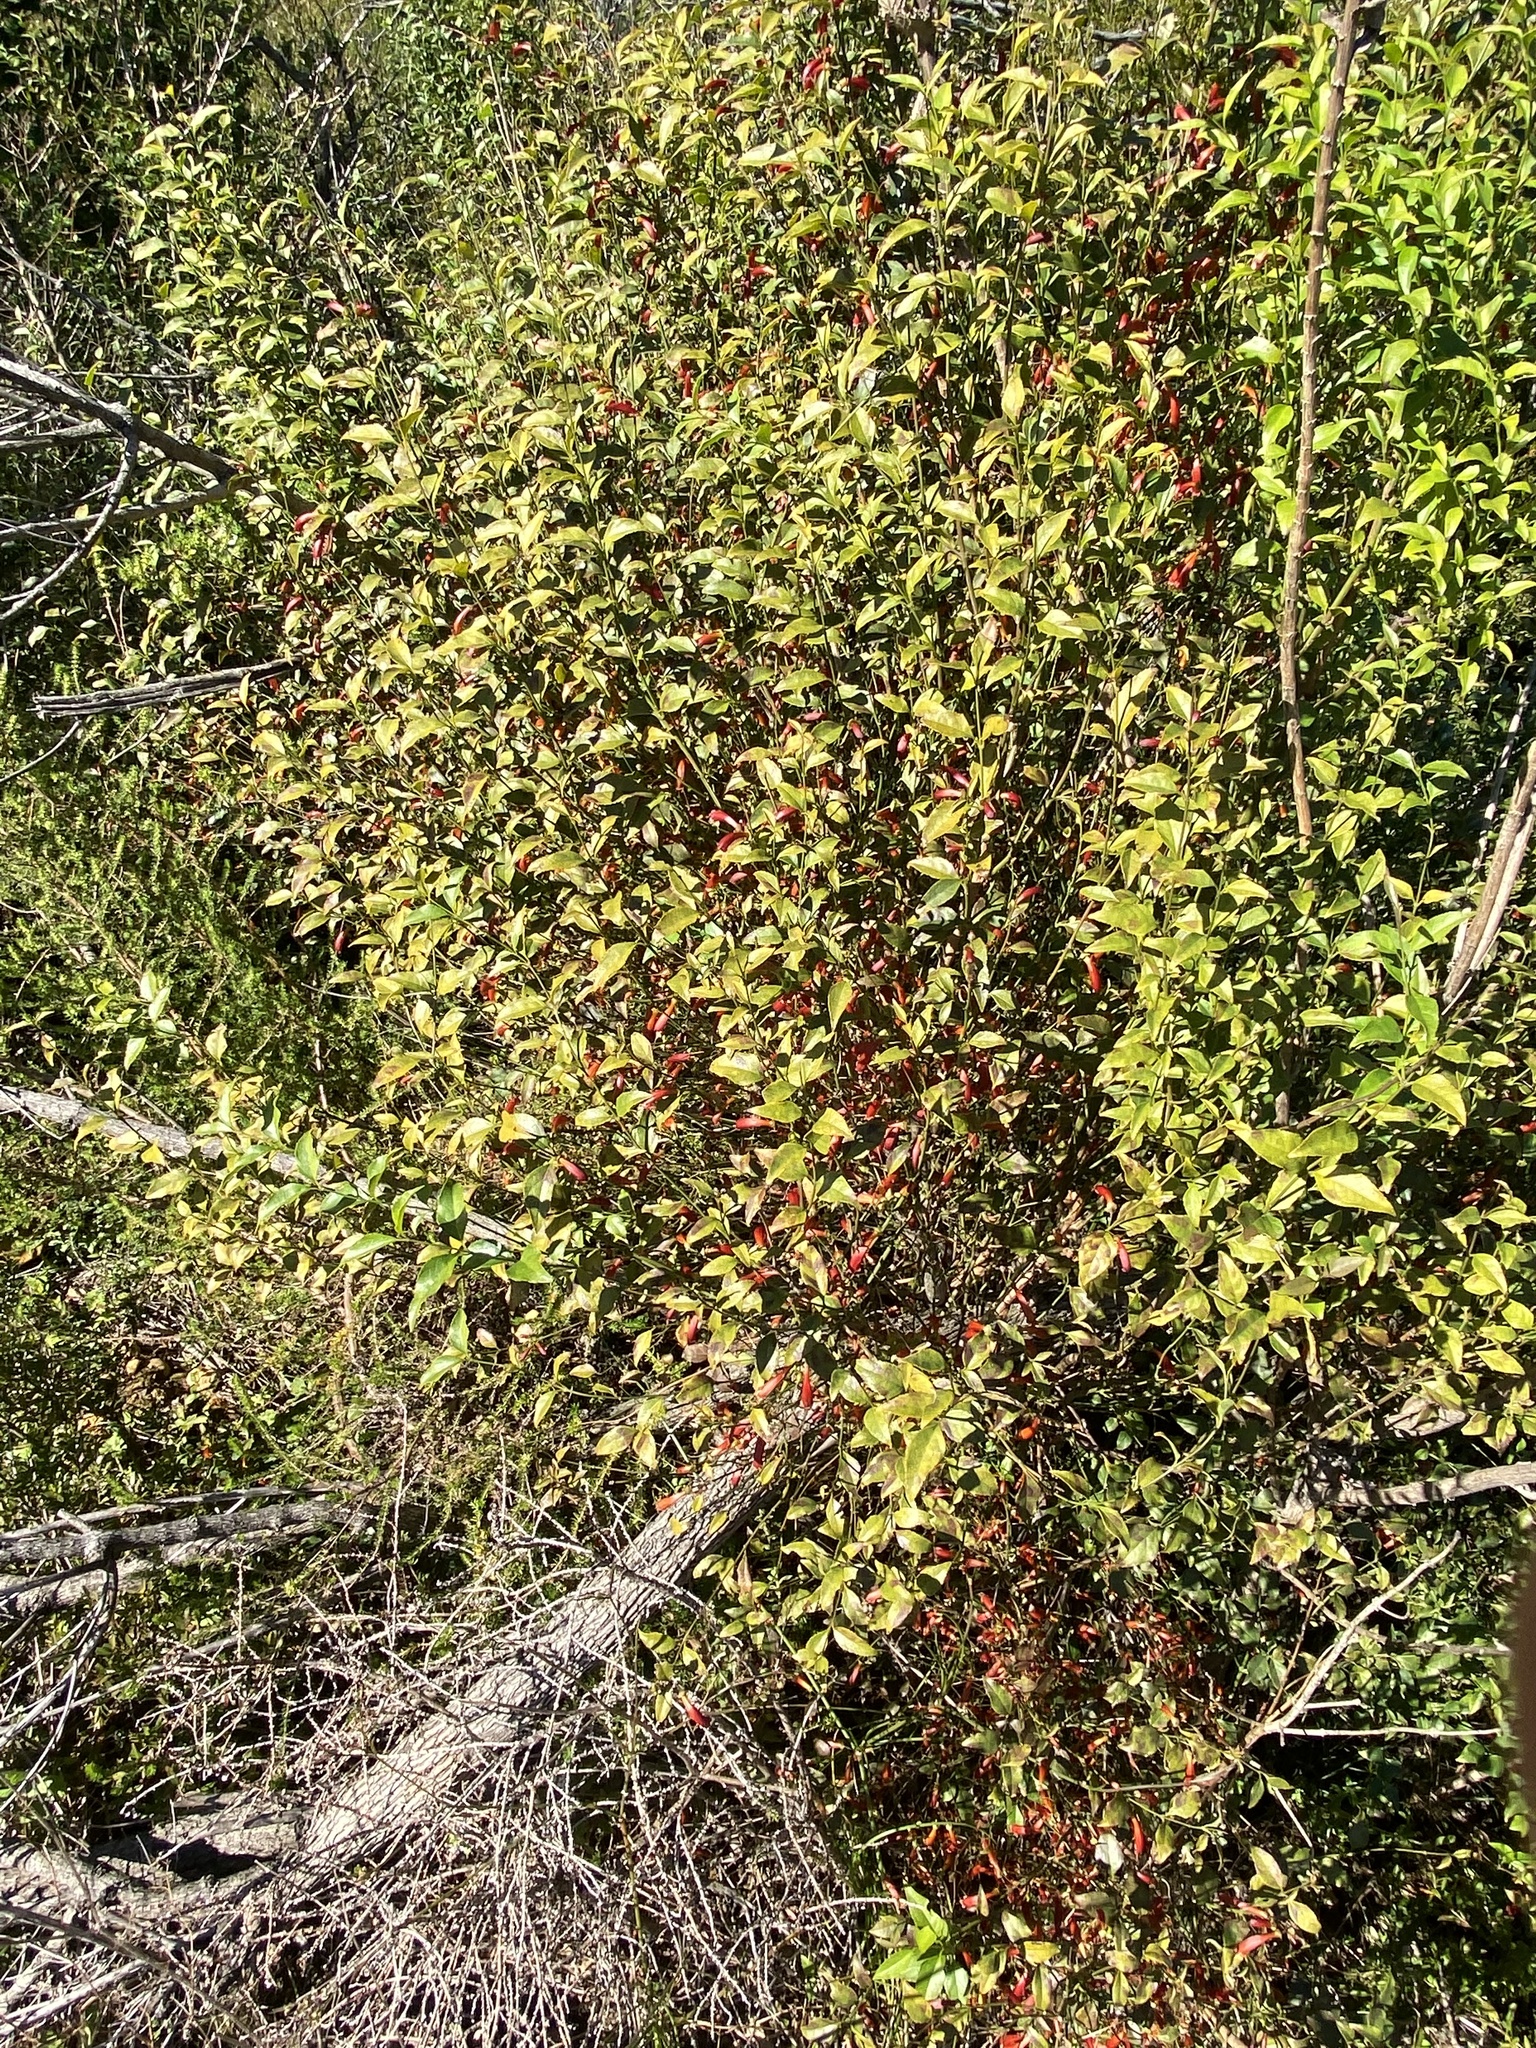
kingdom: Plantae
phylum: Tracheophyta
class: Magnoliopsida
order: Lamiales
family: Stilbaceae
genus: Halleria
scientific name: Halleria lucida
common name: Tree fuschia
